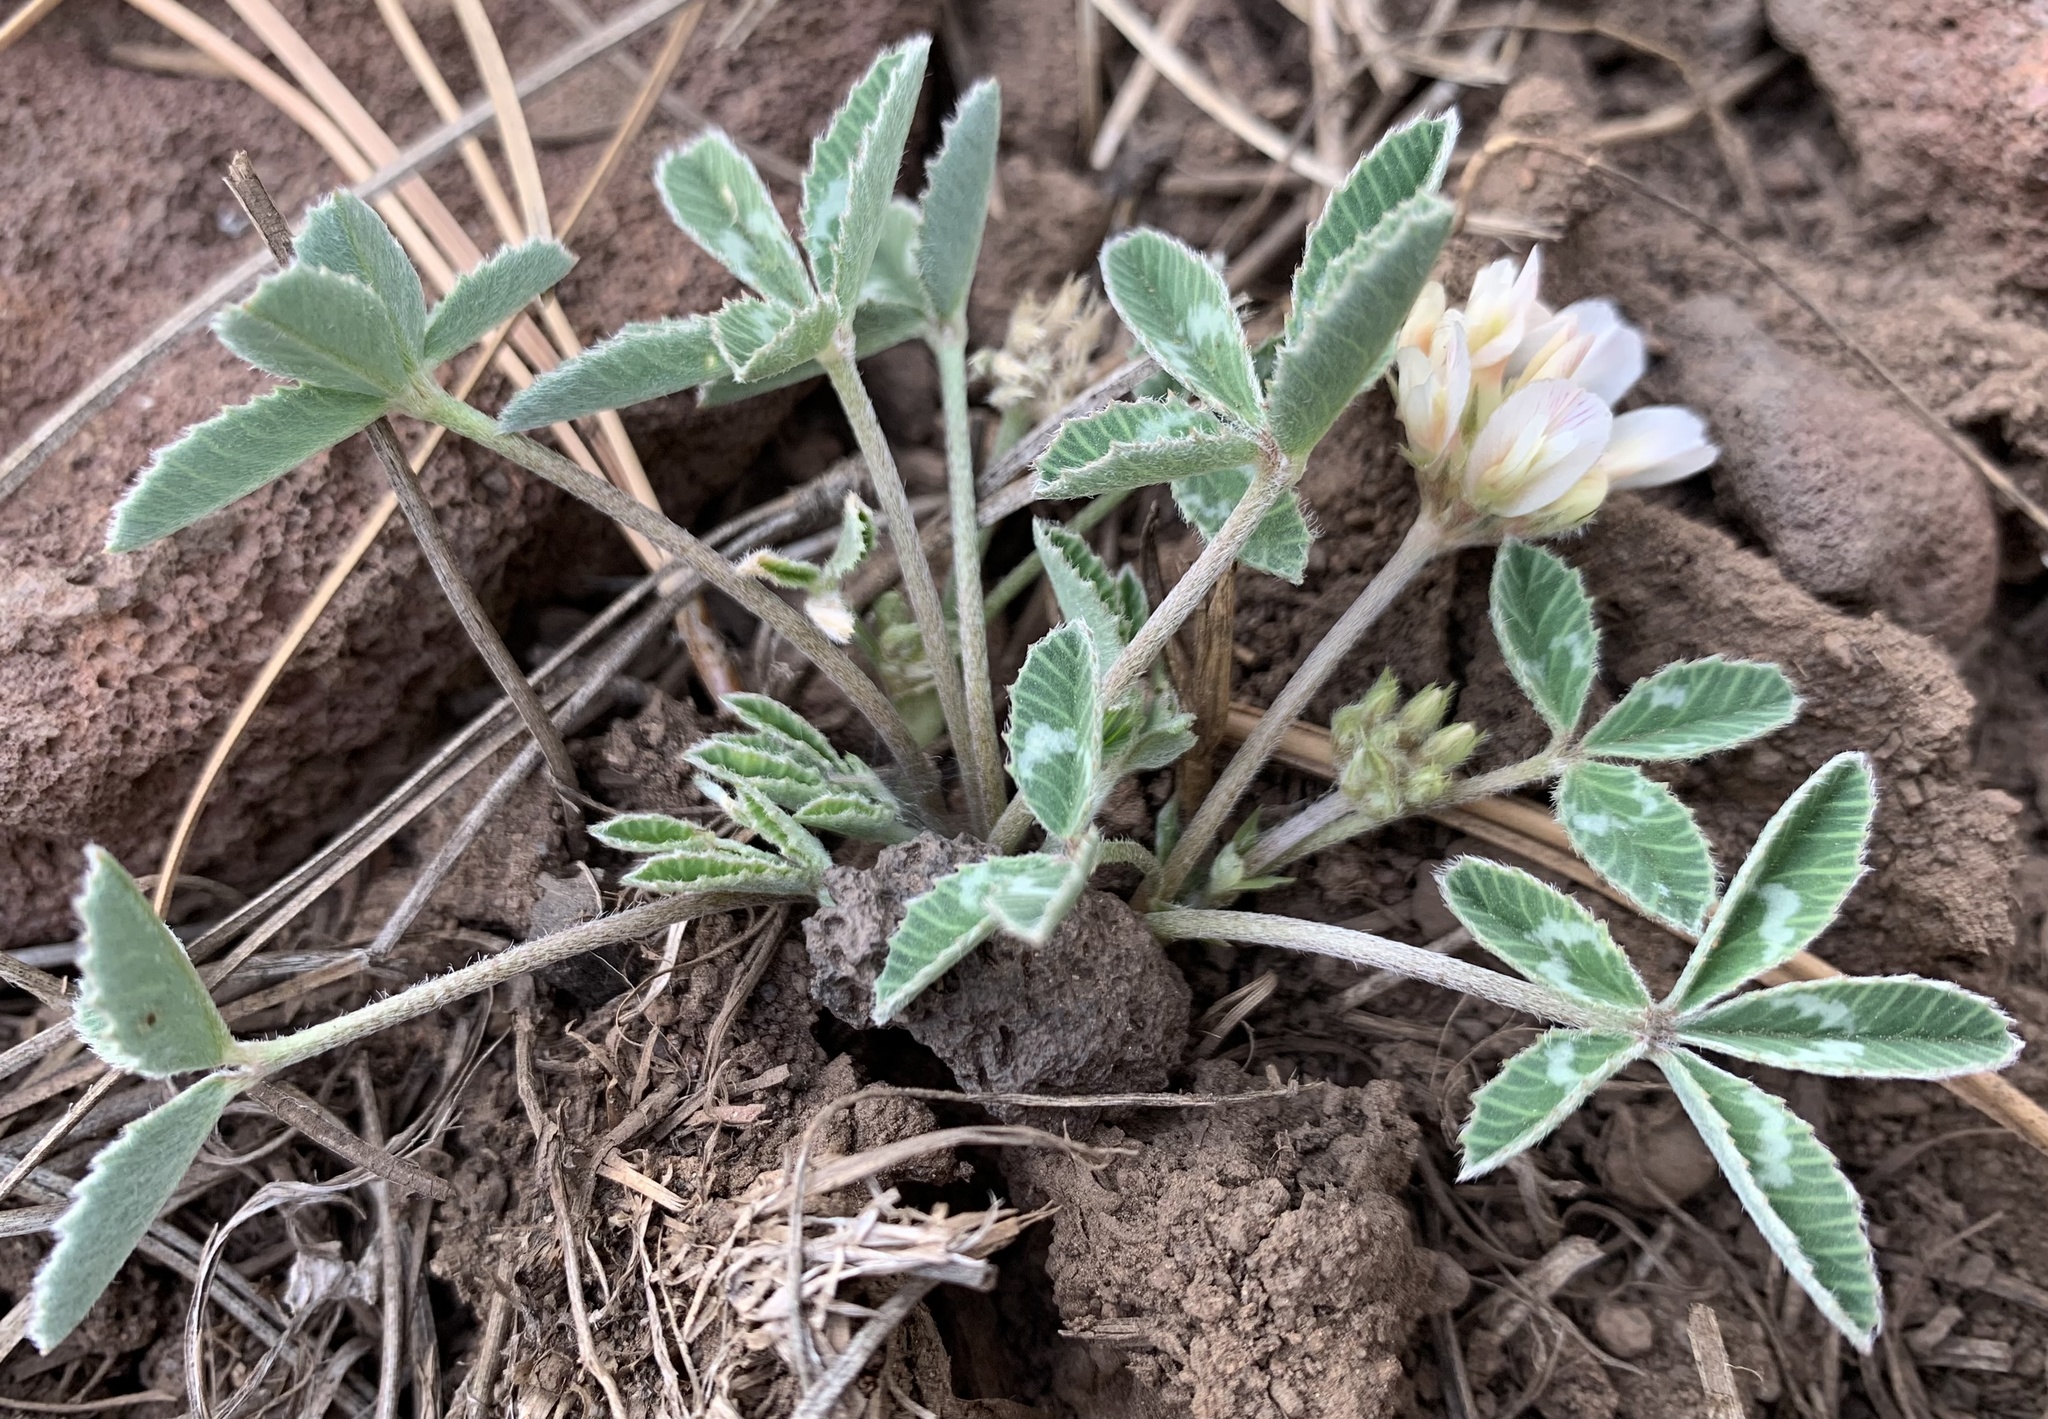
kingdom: Plantae
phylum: Tracheophyta
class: Magnoliopsida
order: Fabales
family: Fabaceae
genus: Trifolium
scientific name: Trifolium gymnocarpon
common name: Tufted clover
